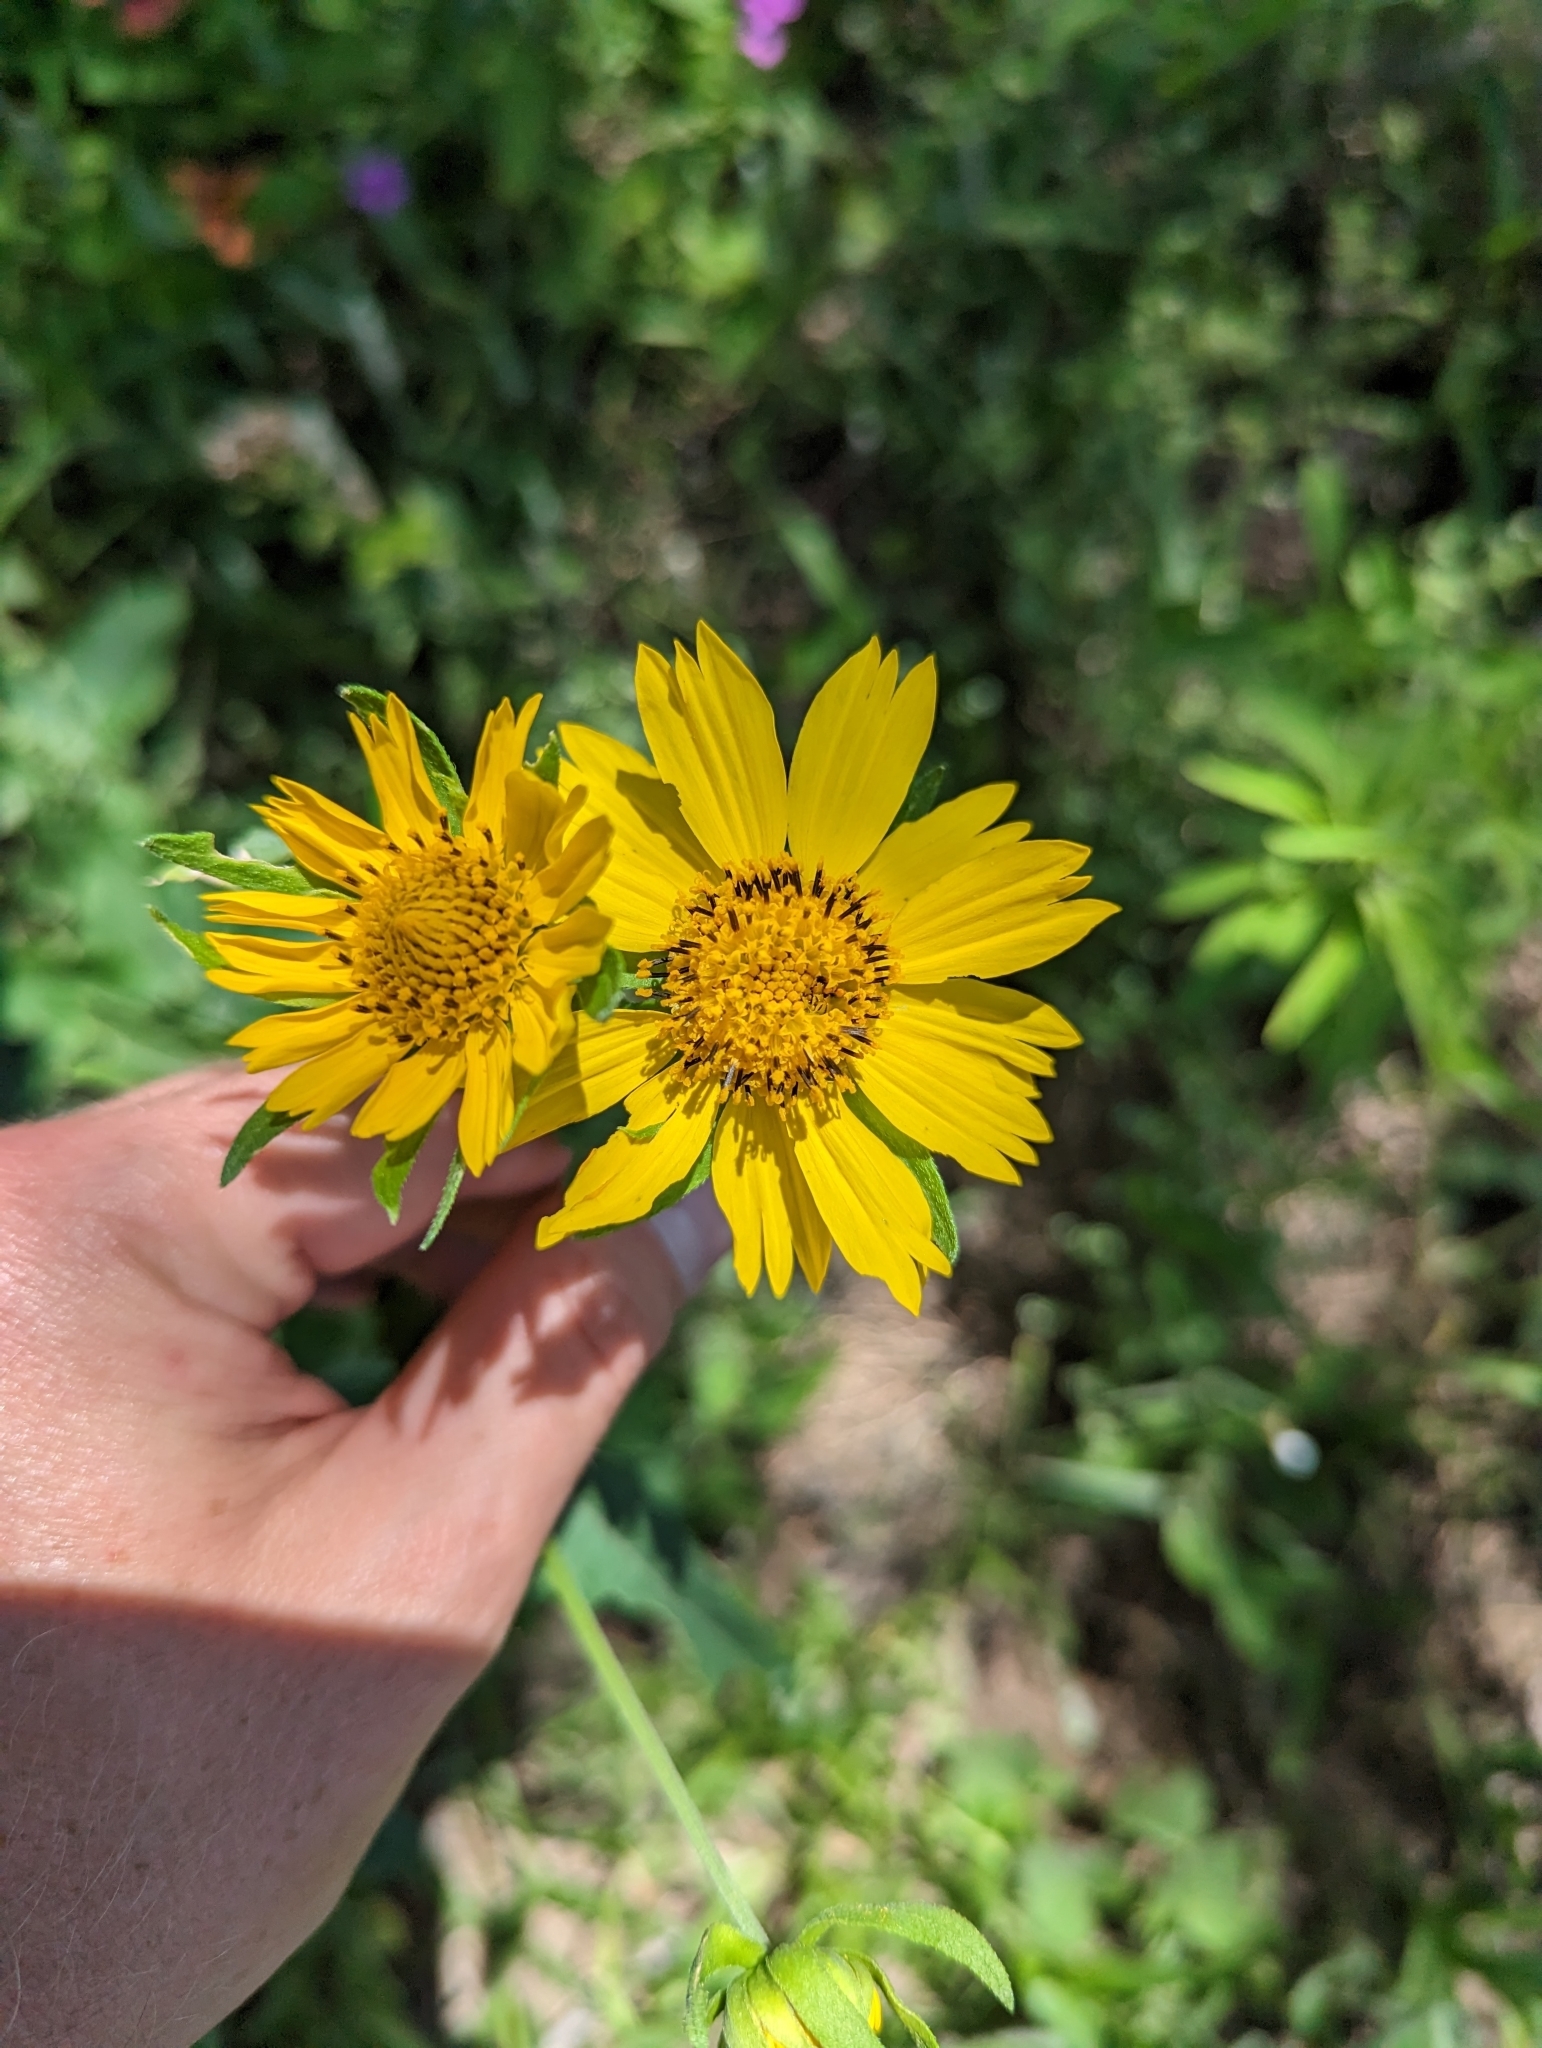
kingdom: Plantae
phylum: Tracheophyta
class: Magnoliopsida
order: Asterales
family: Asteraceae
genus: Verbesina
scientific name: Verbesina encelioides
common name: Golden crownbeard
